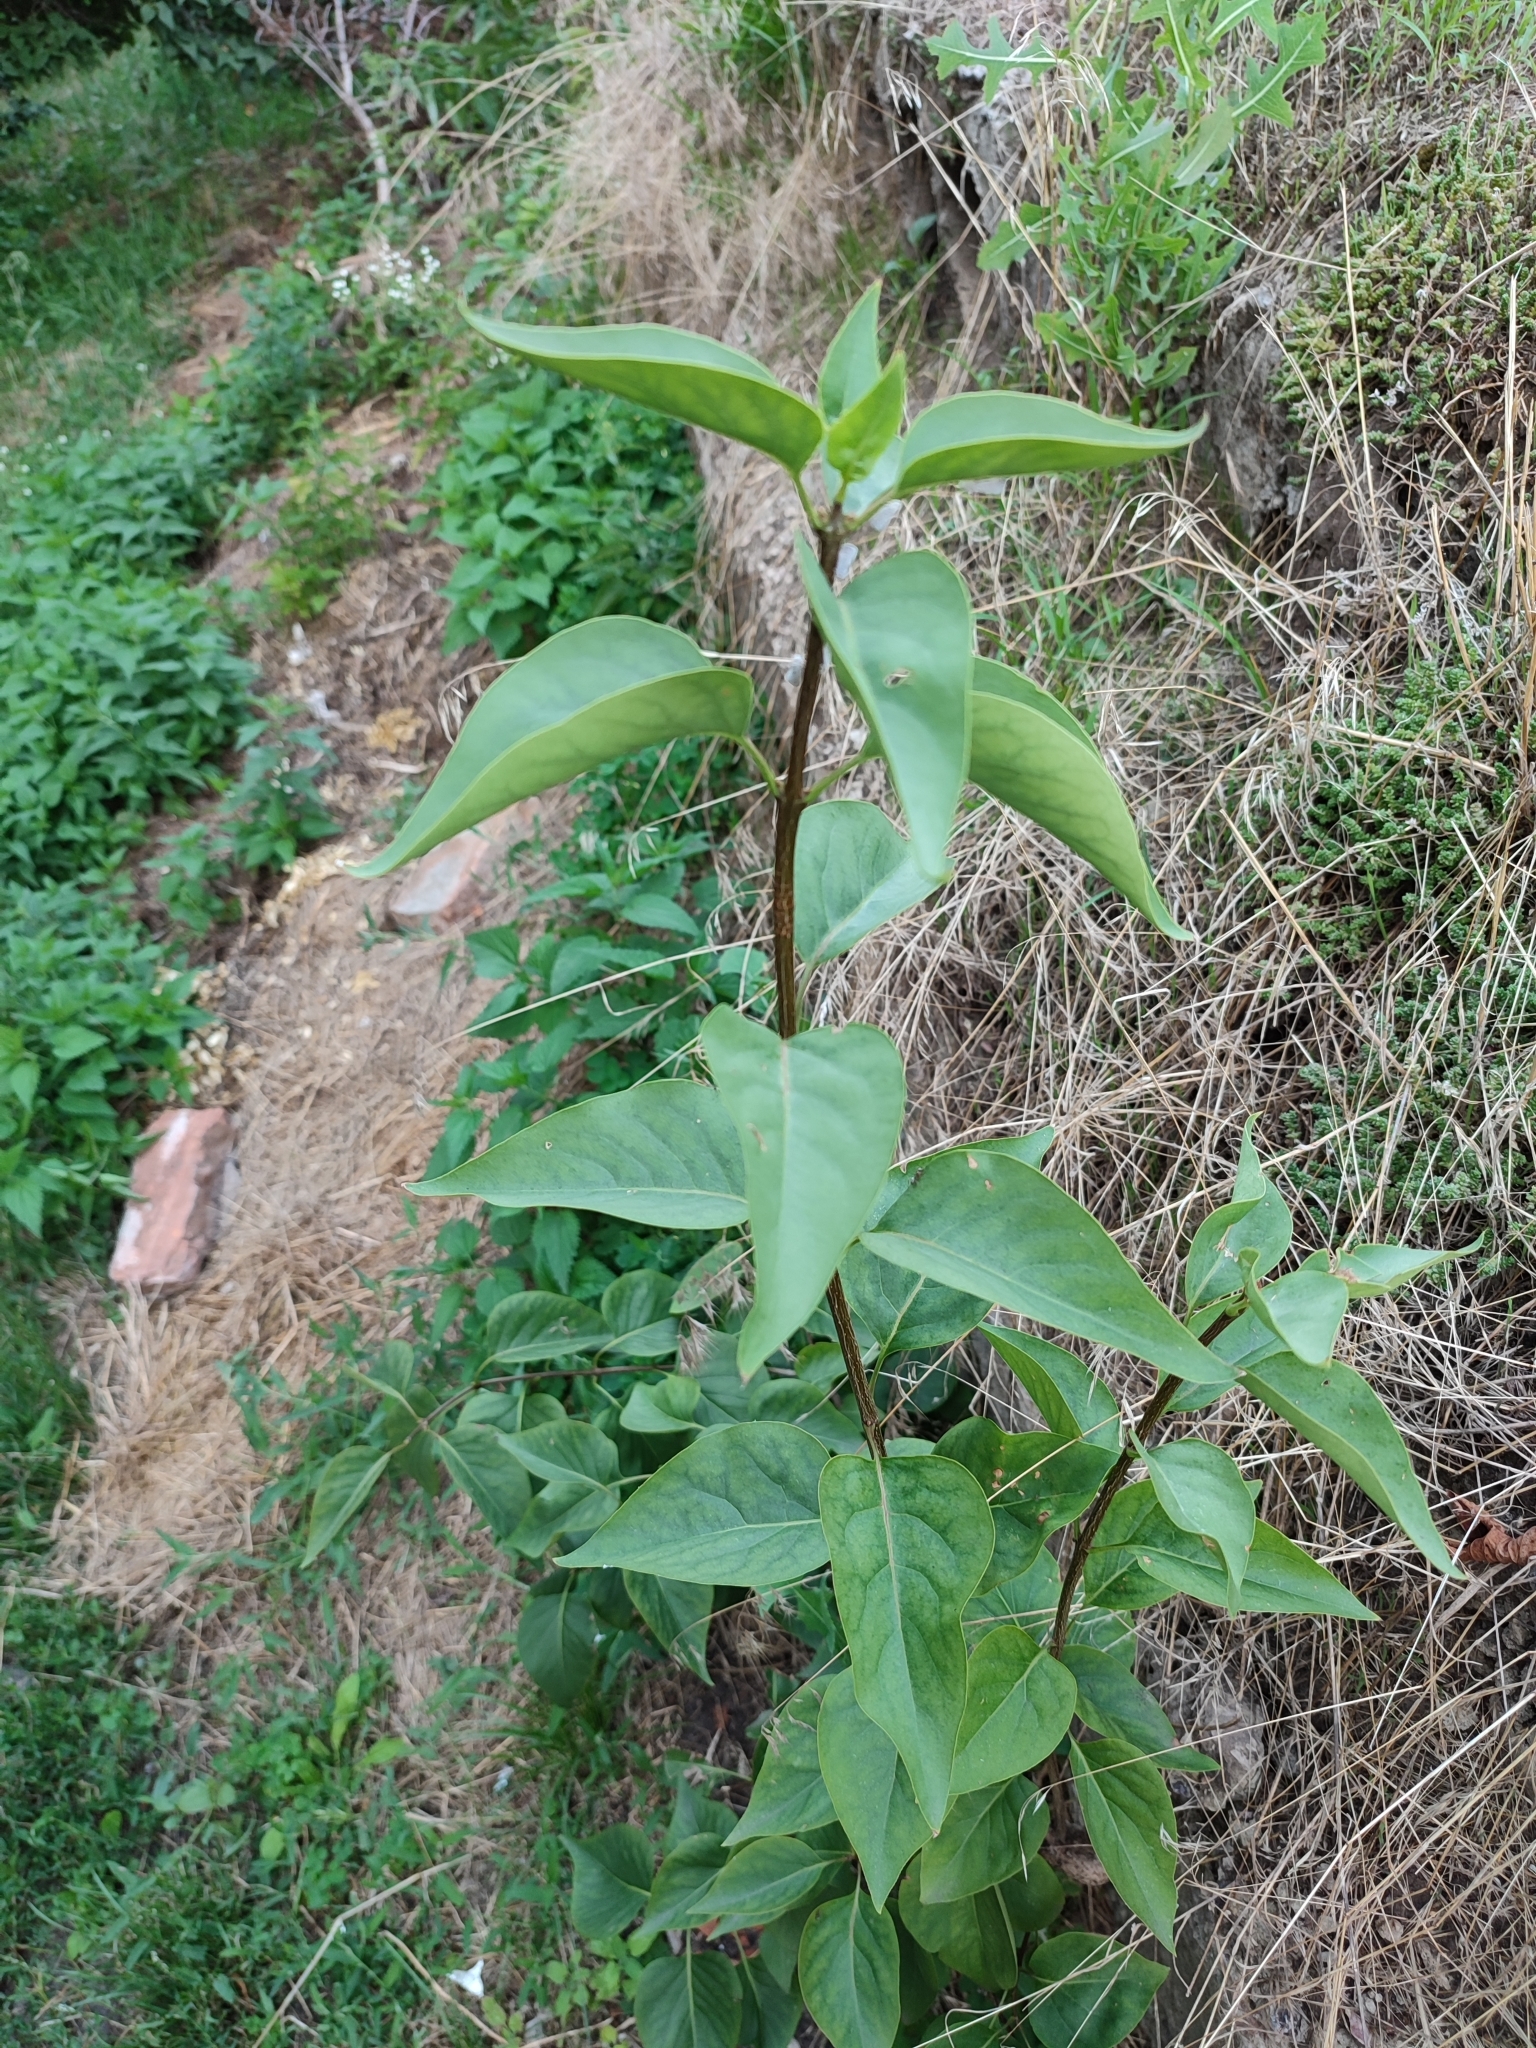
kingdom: Plantae
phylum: Tracheophyta
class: Magnoliopsida
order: Lamiales
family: Oleaceae
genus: Syringa
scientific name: Syringa vulgaris
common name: Common lilac
